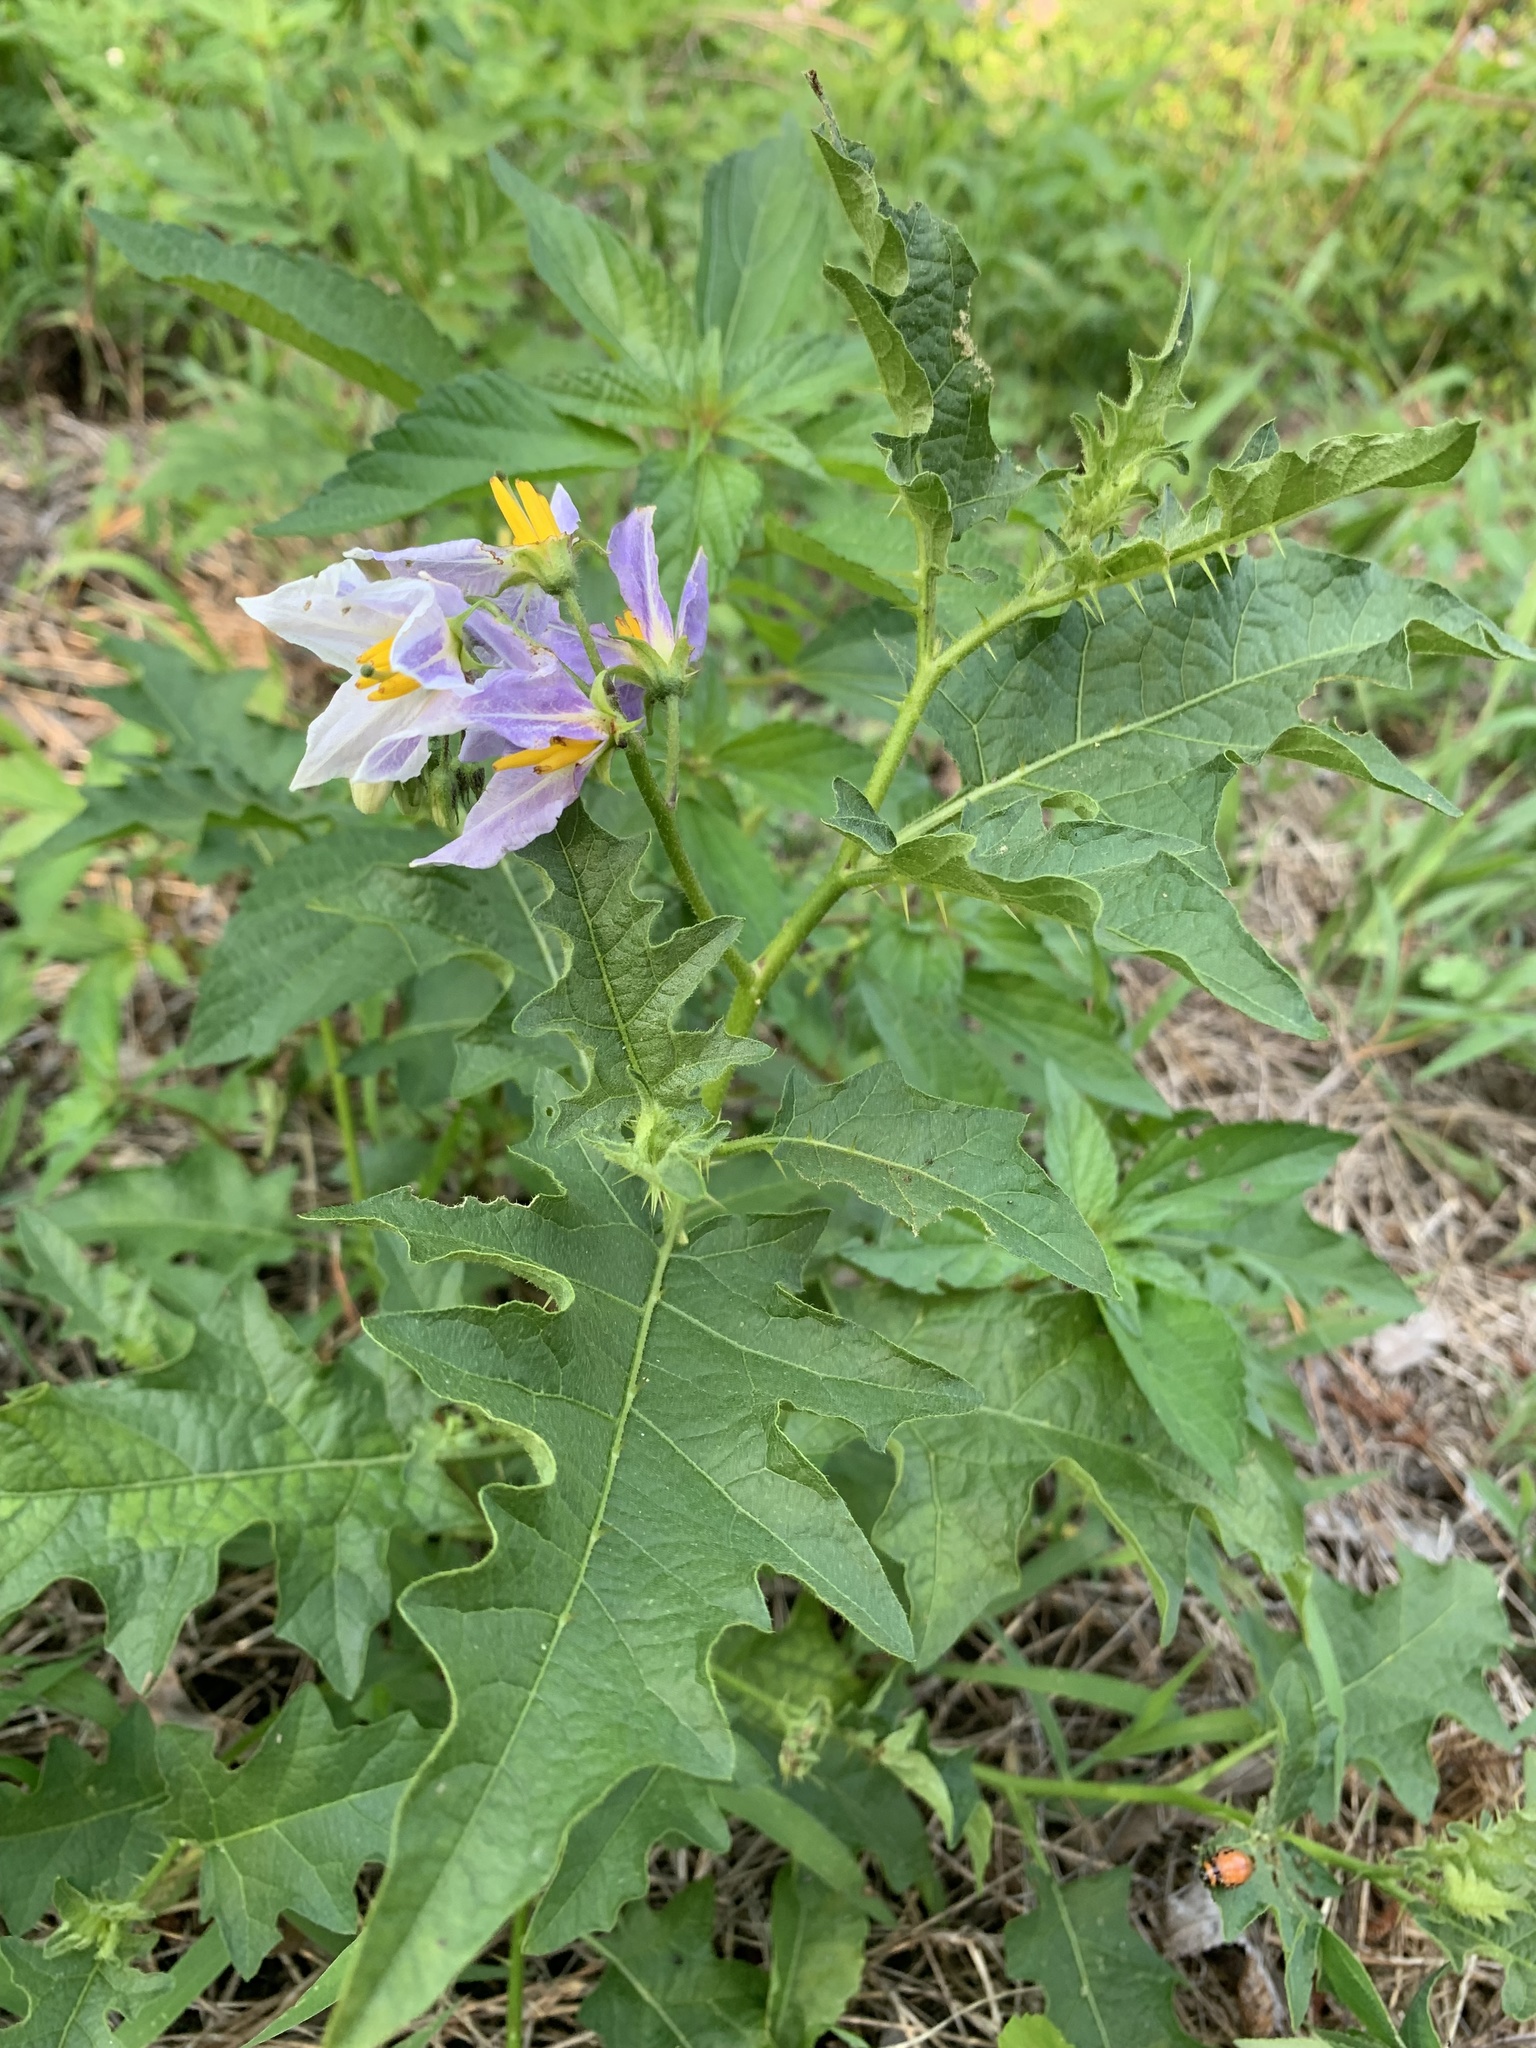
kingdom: Plantae
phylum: Tracheophyta
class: Magnoliopsida
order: Solanales
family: Solanaceae
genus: Solanum
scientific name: Solanum carolinense
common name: Horse-nettle
